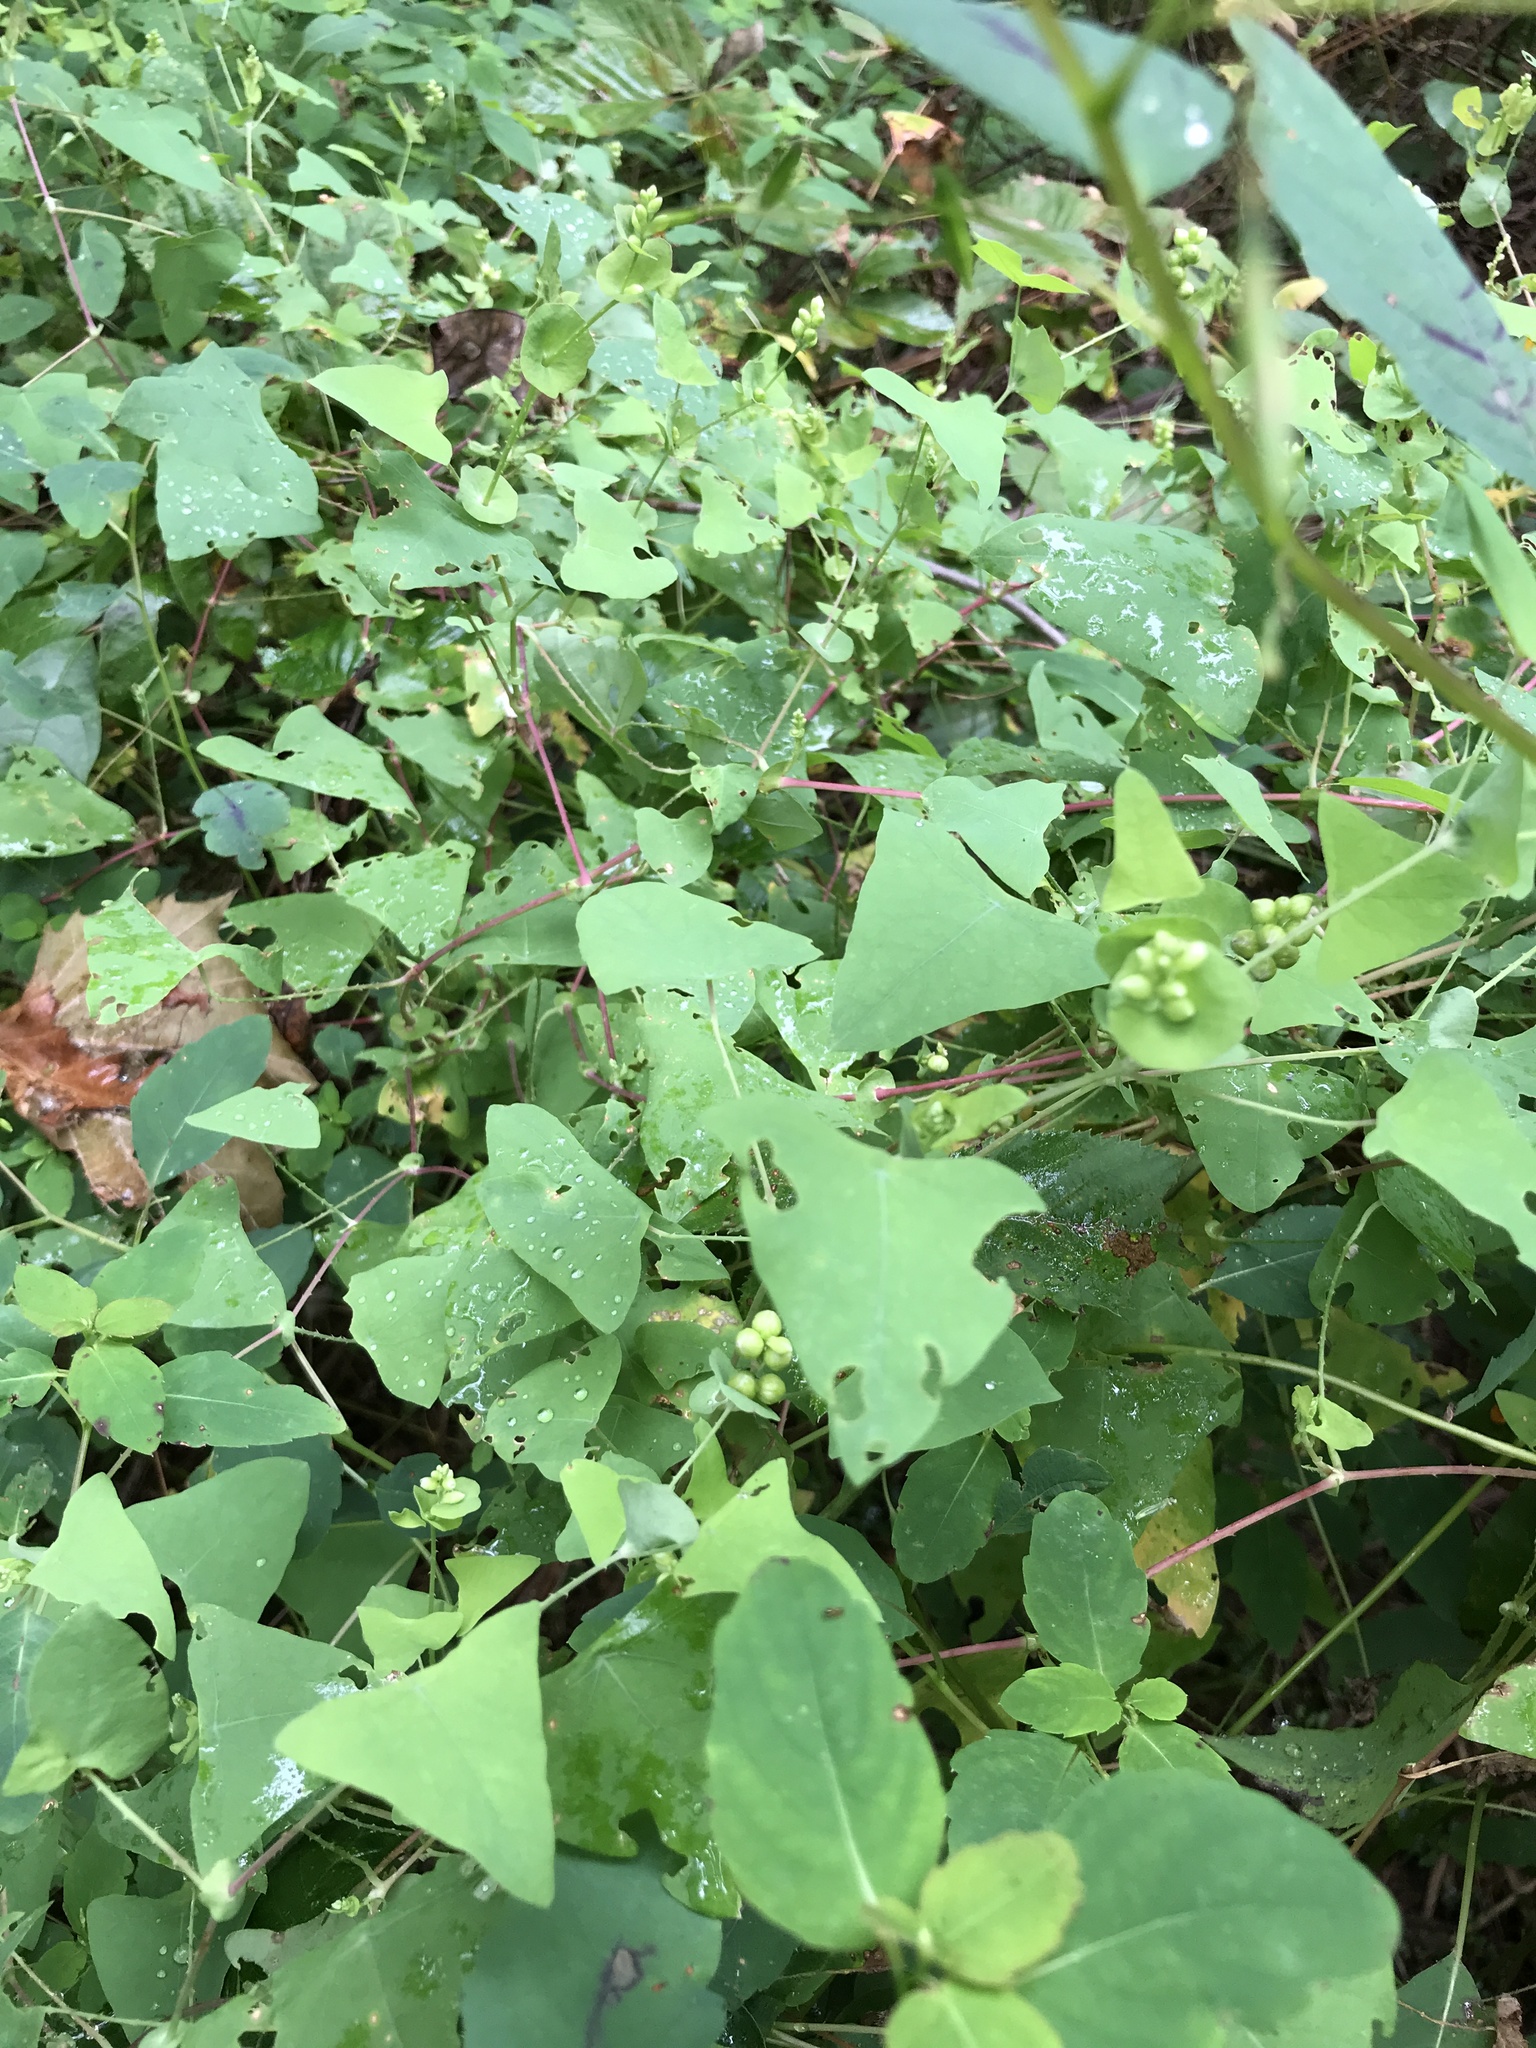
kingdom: Plantae
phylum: Tracheophyta
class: Magnoliopsida
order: Caryophyllales
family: Polygonaceae
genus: Persicaria
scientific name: Persicaria perfoliata
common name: Asiatic tearthumb
